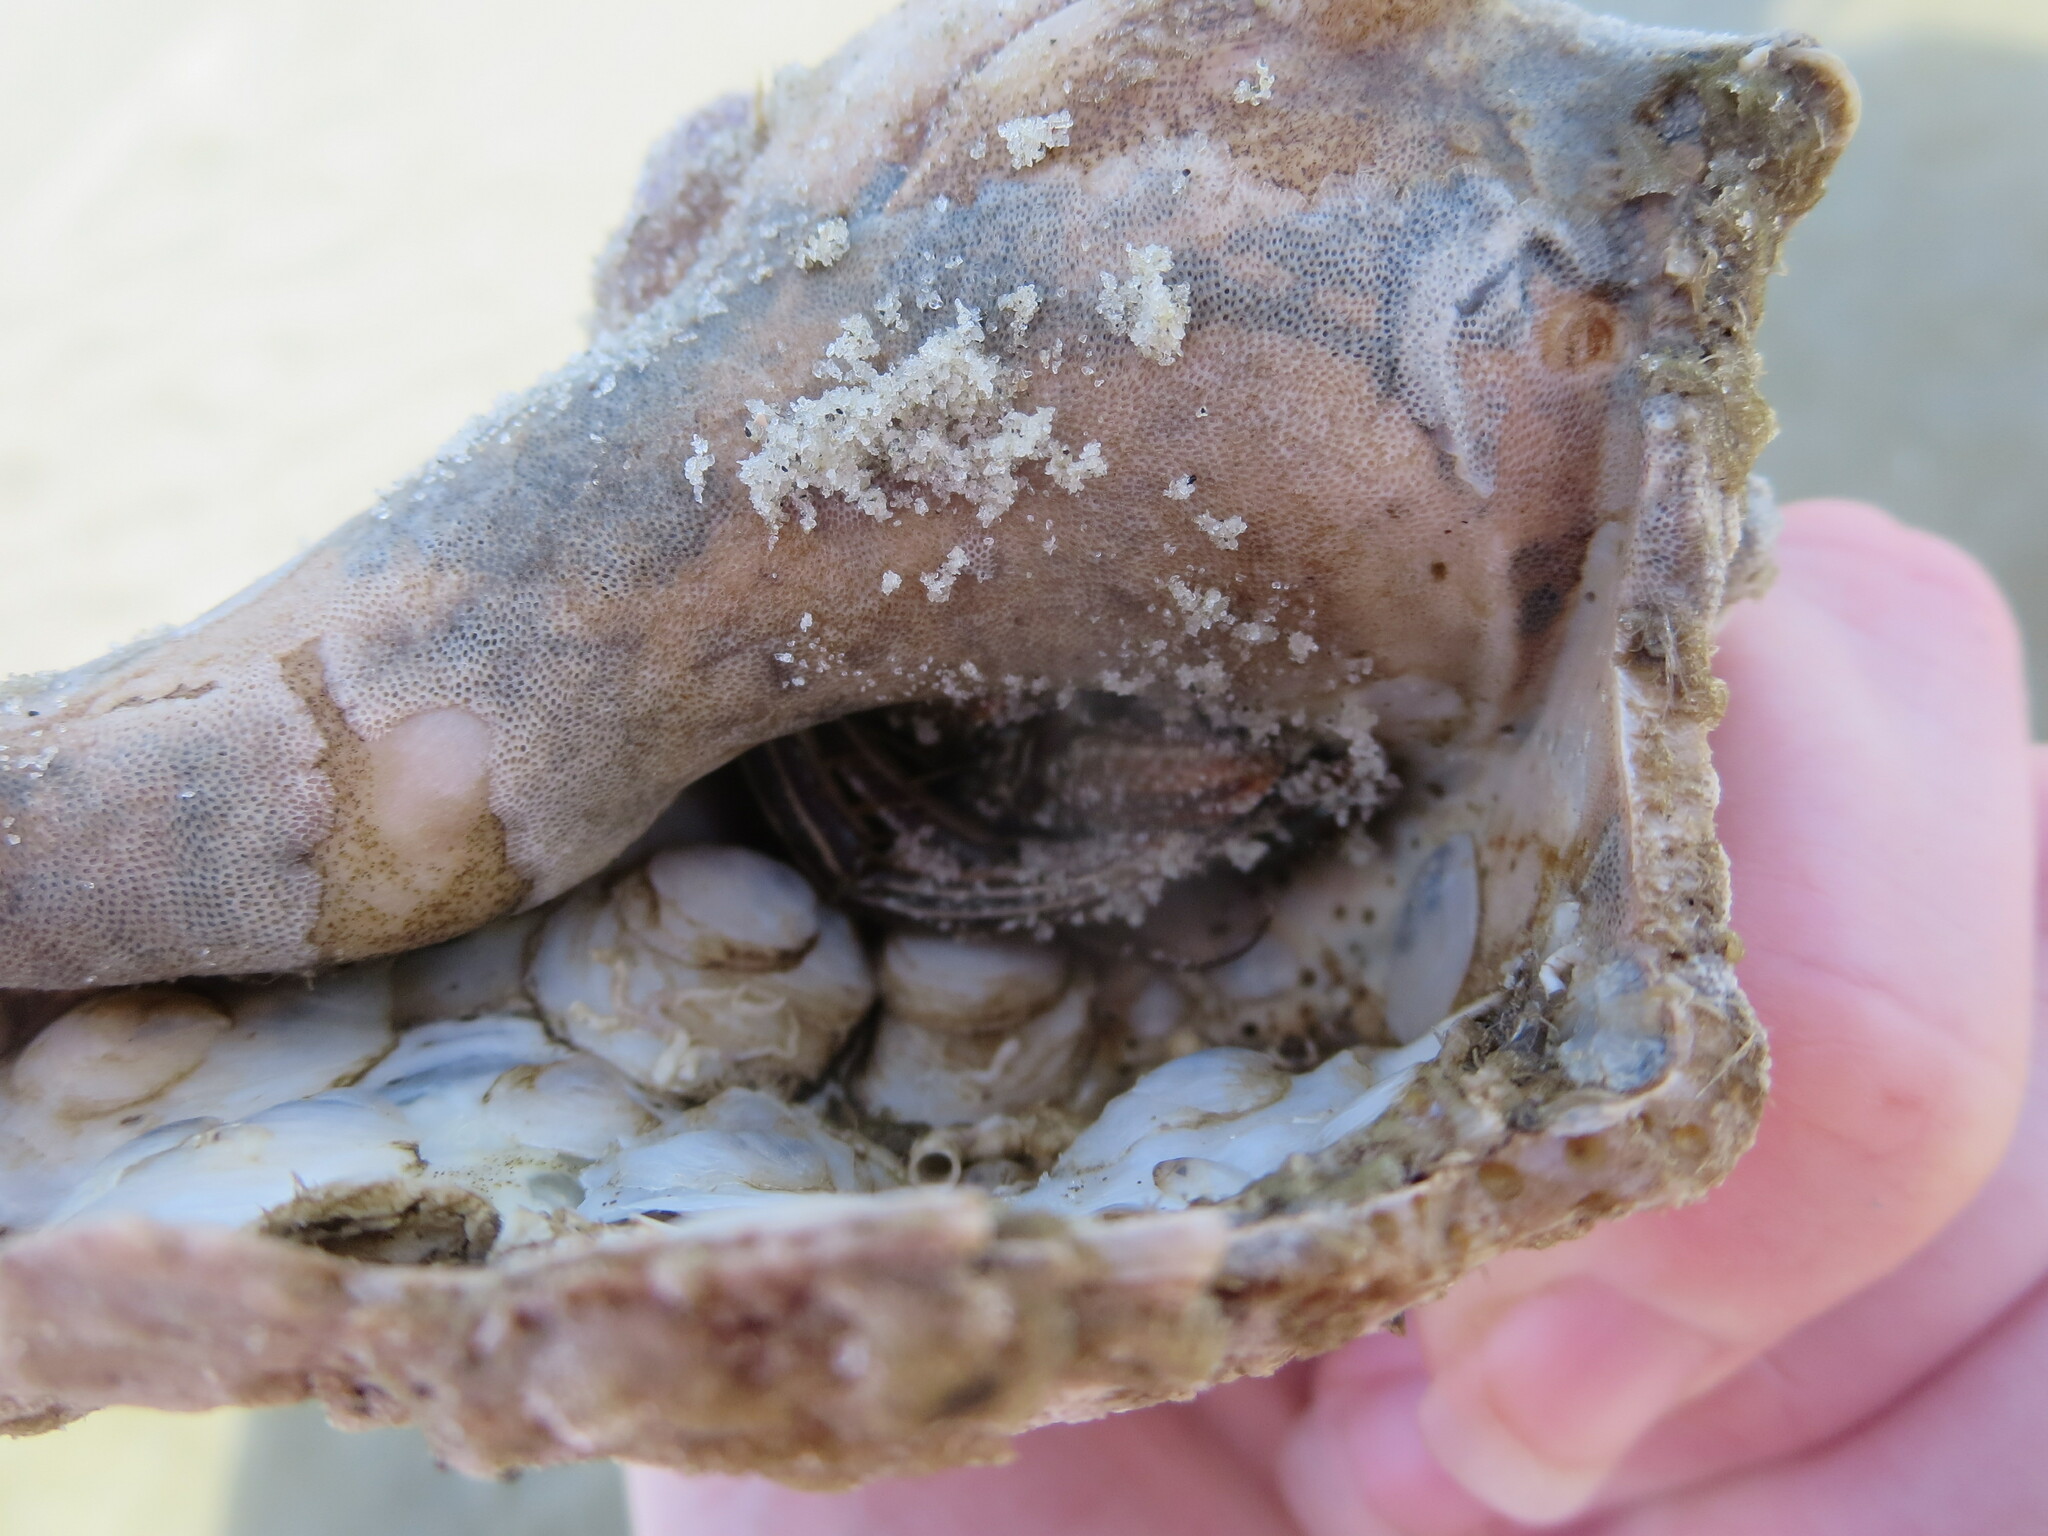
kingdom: Animalia
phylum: Arthropoda
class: Malacostraca
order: Decapoda
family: Diogenidae
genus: Clibanarius
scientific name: Clibanarius vittatus
